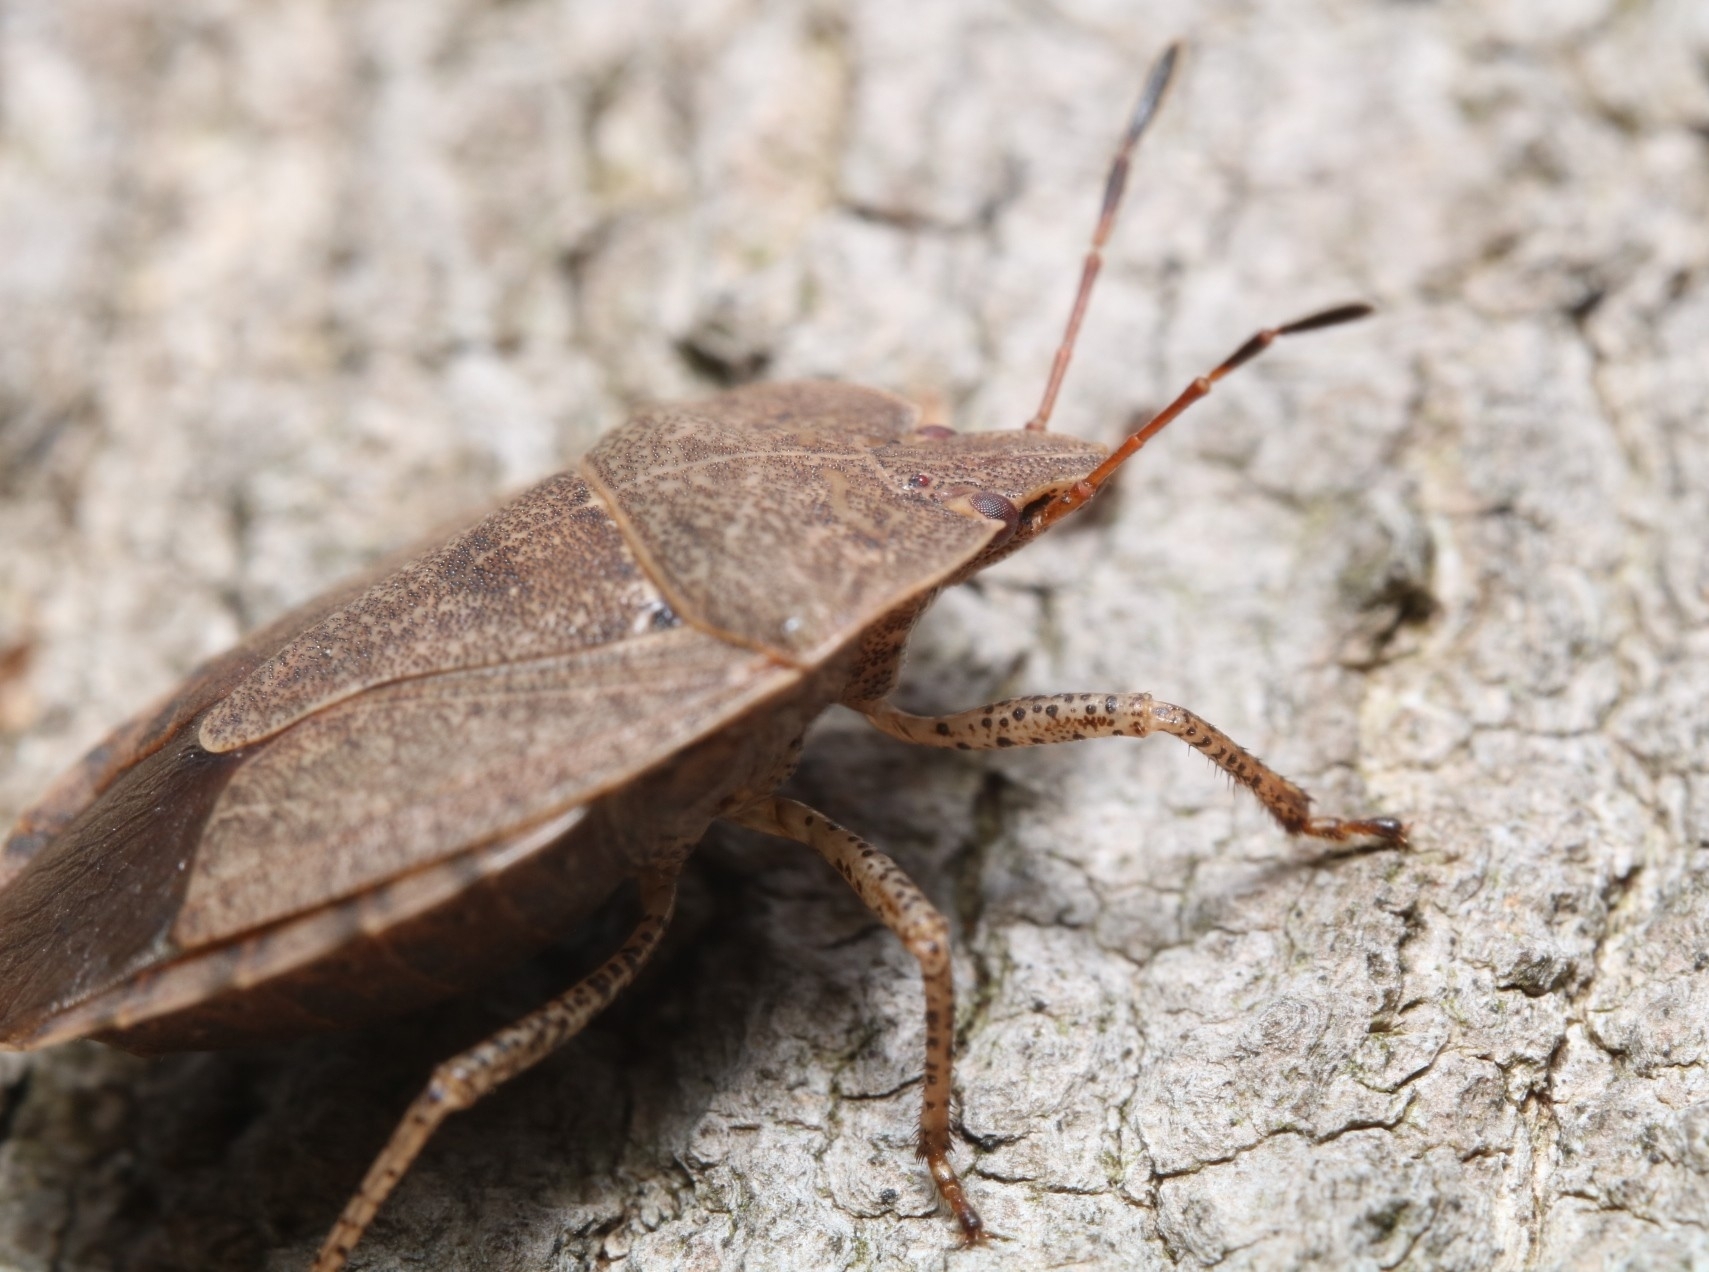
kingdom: Animalia
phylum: Arthropoda
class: Insecta
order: Hemiptera
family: Pentatomidae
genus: Menecles
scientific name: Menecles insertus
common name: Elf shoe stink bug
